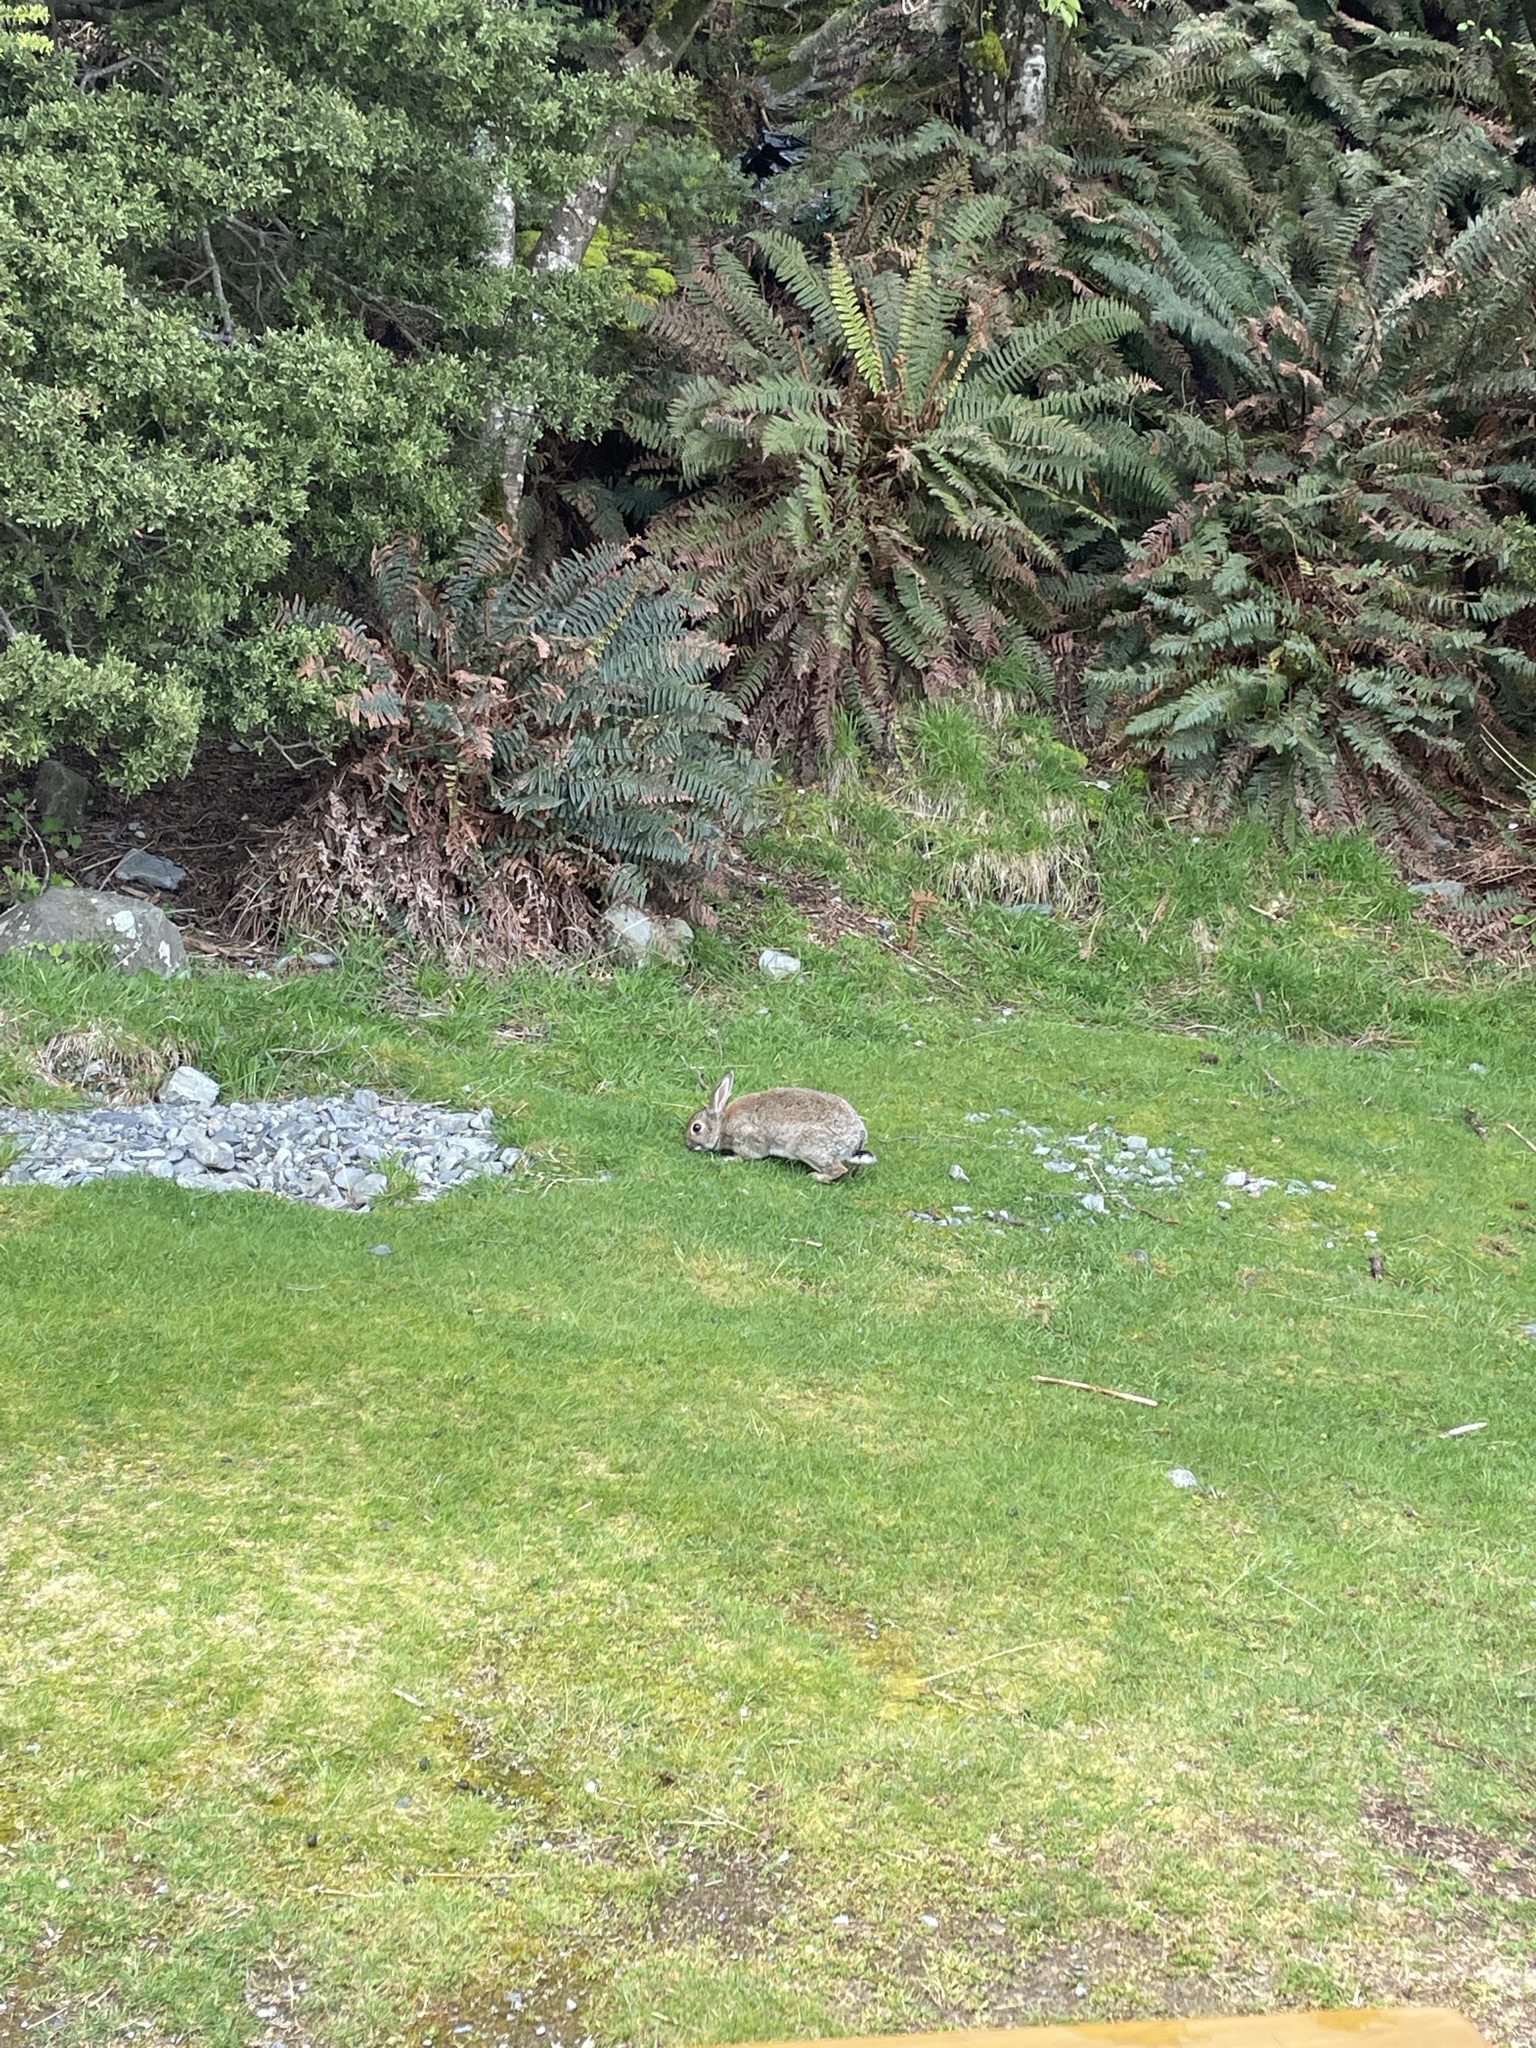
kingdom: Animalia
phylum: Chordata
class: Mammalia
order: Lagomorpha
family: Leporidae
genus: Oryctolagus
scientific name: Oryctolagus cuniculus
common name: European rabbit
